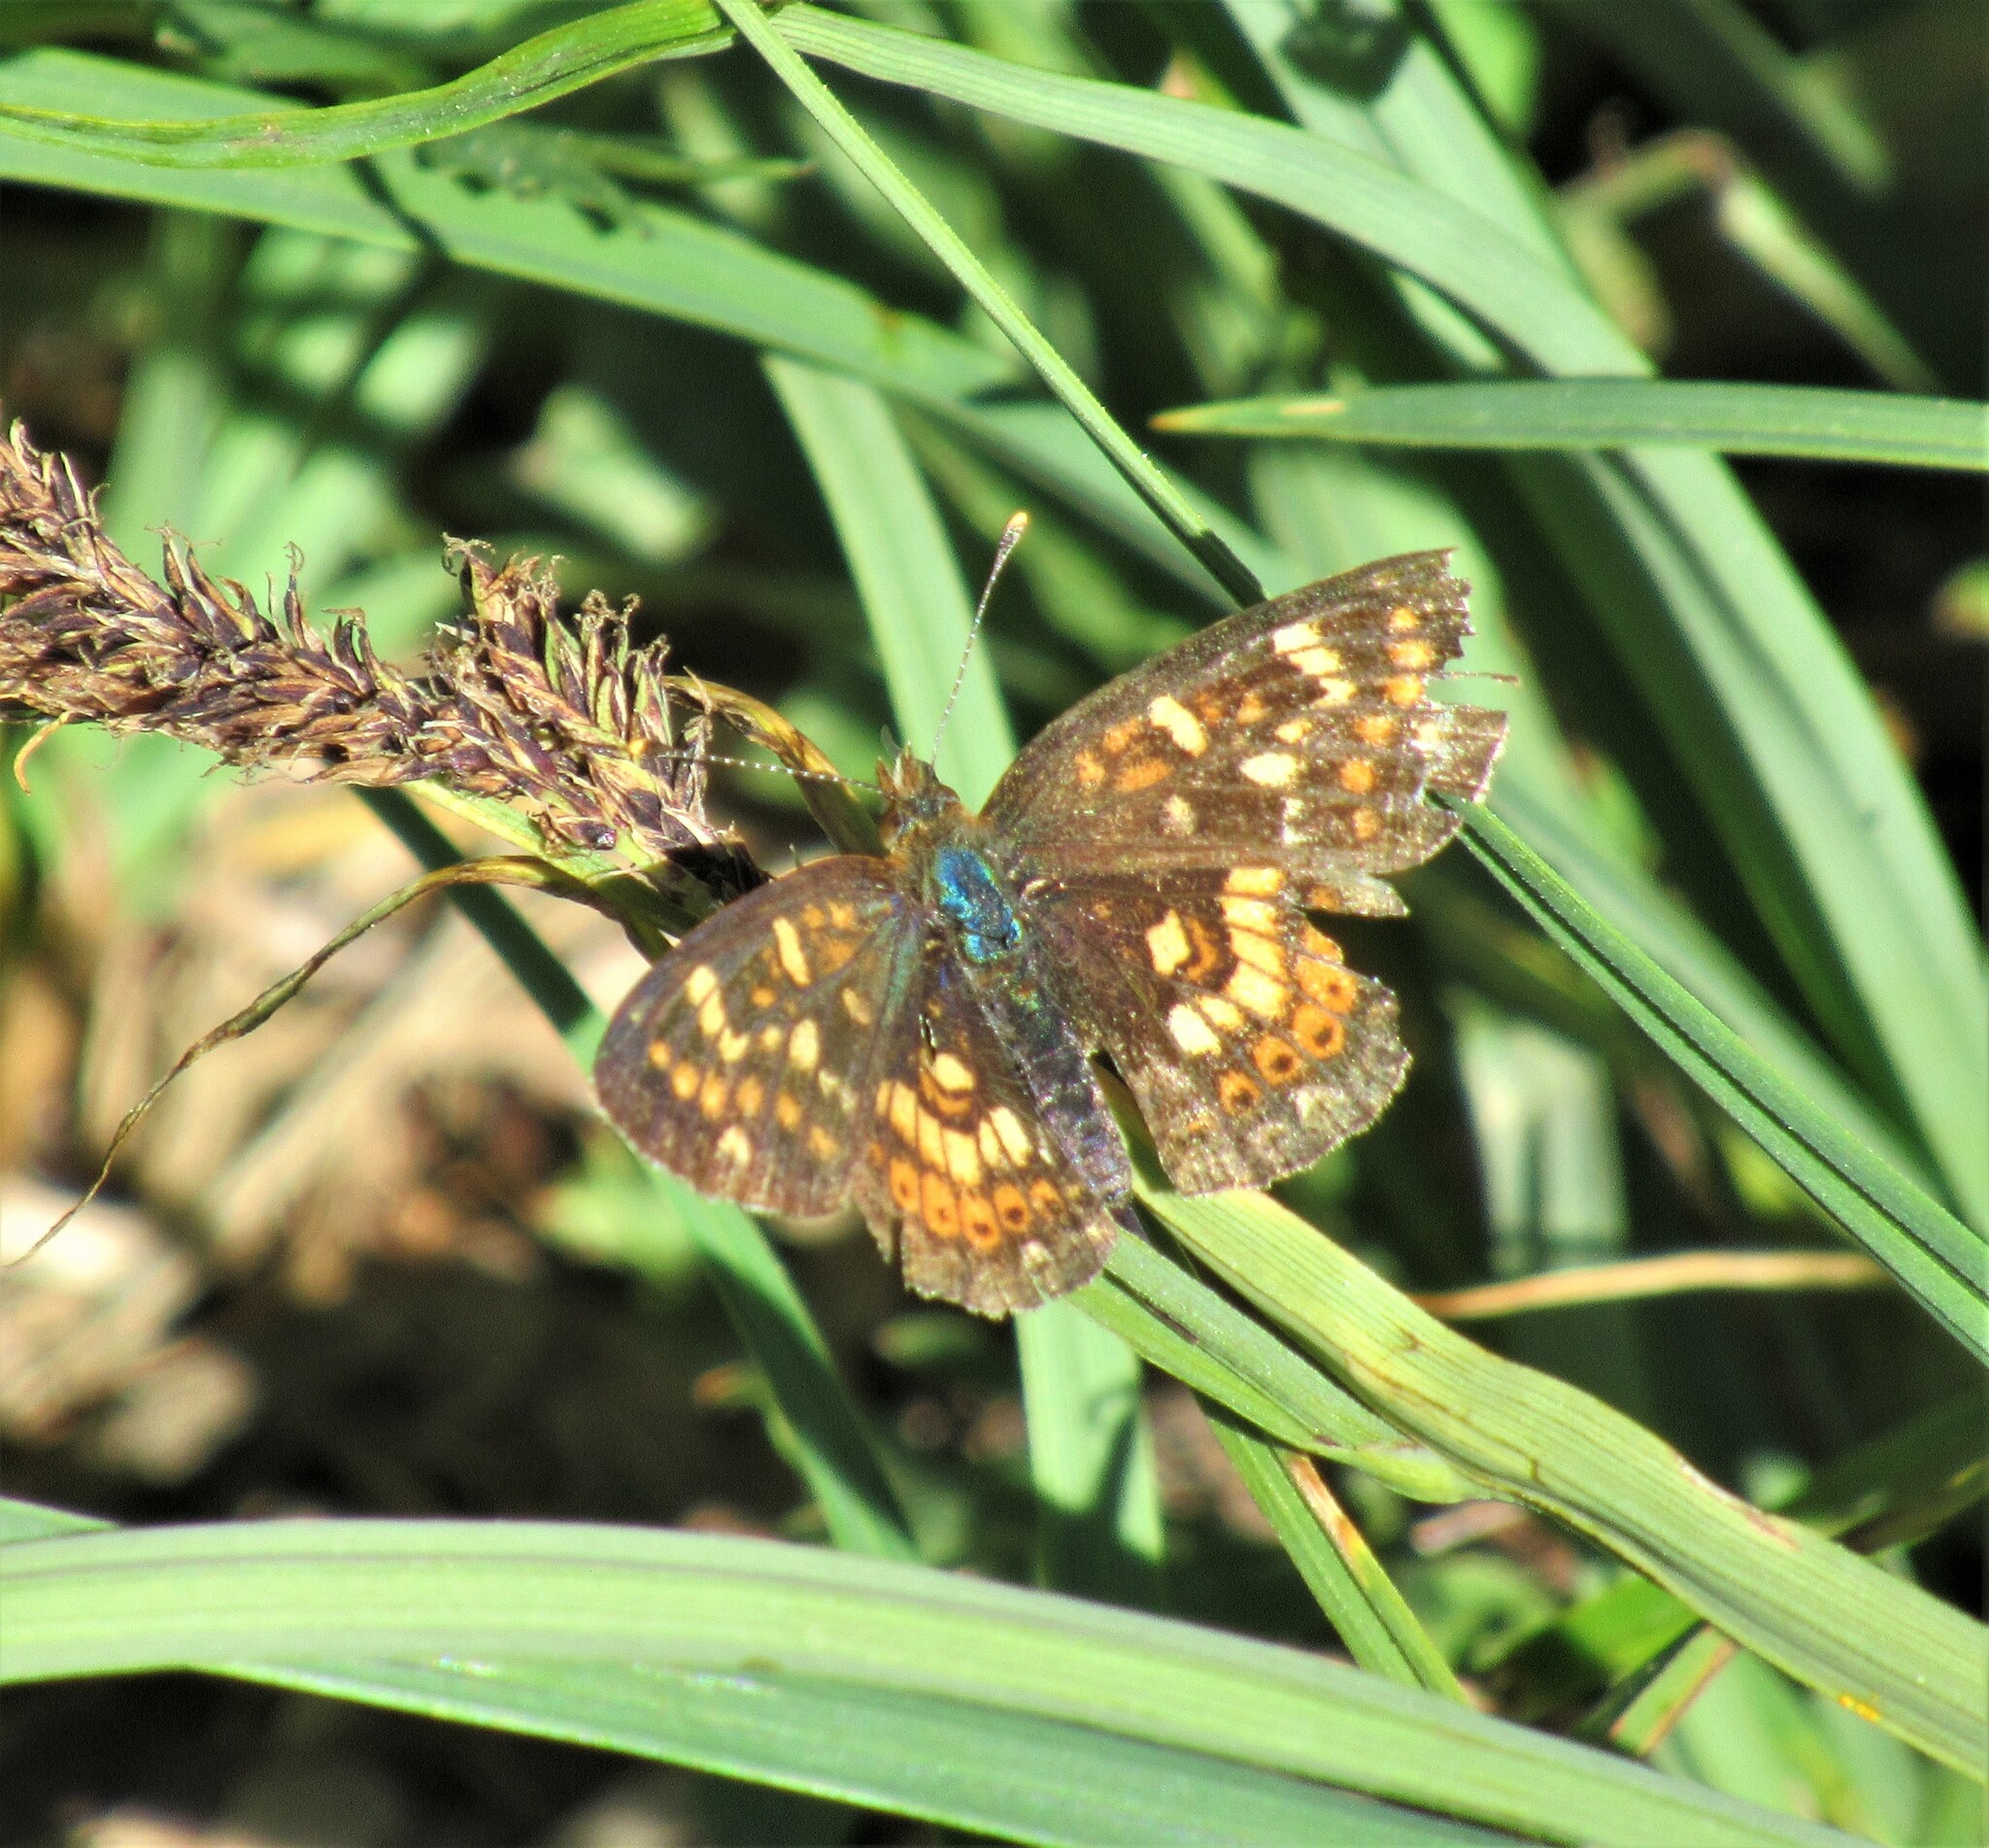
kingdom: Animalia
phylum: Arthropoda
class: Insecta
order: Lepidoptera
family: Nymphalidae
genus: Phyciodes
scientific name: Phyciodes tharos
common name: Pearl crescent
